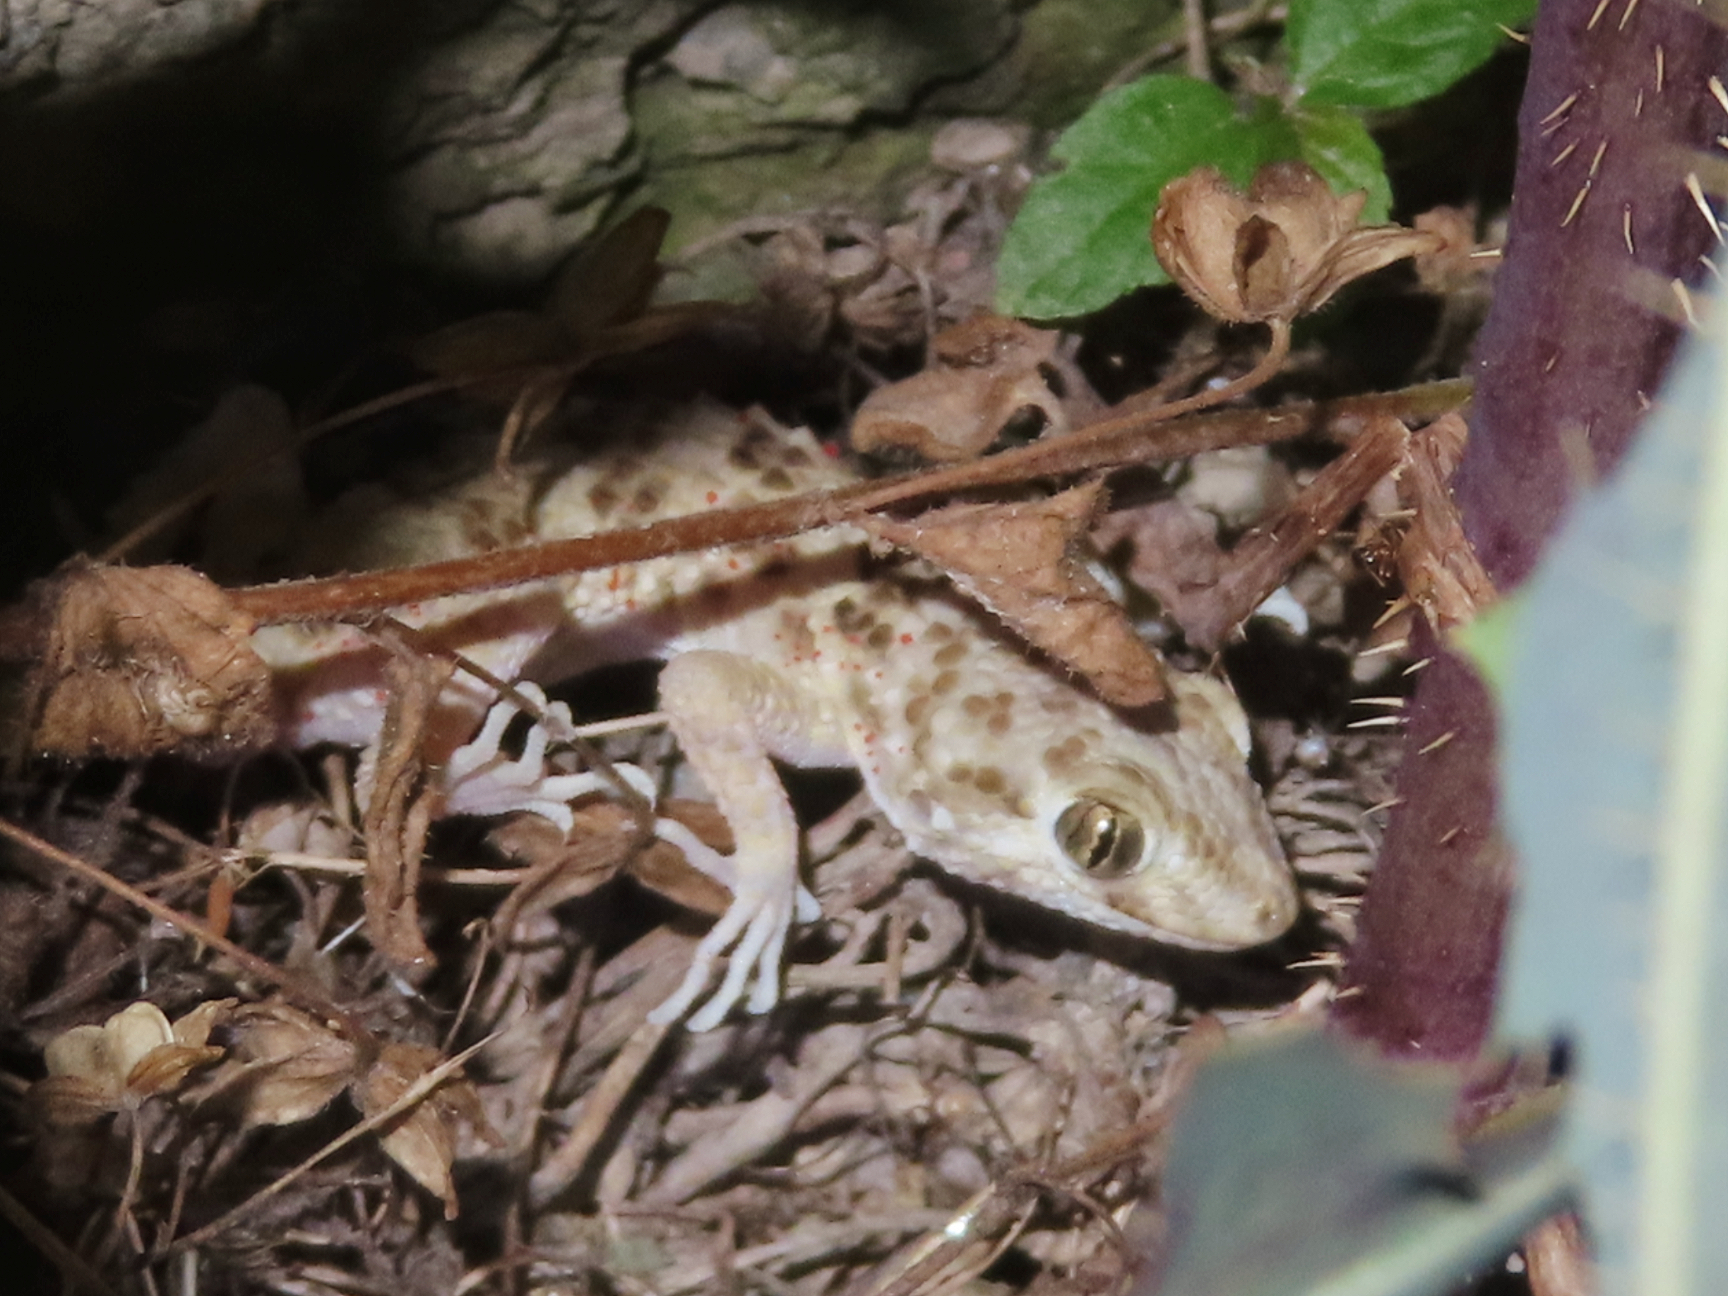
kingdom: Animalia
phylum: Chordata
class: Squamata
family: Gekkonidae
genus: Tenuidactylus
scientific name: Tenuidactylus caspius
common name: Caspian bent-toed gecko
